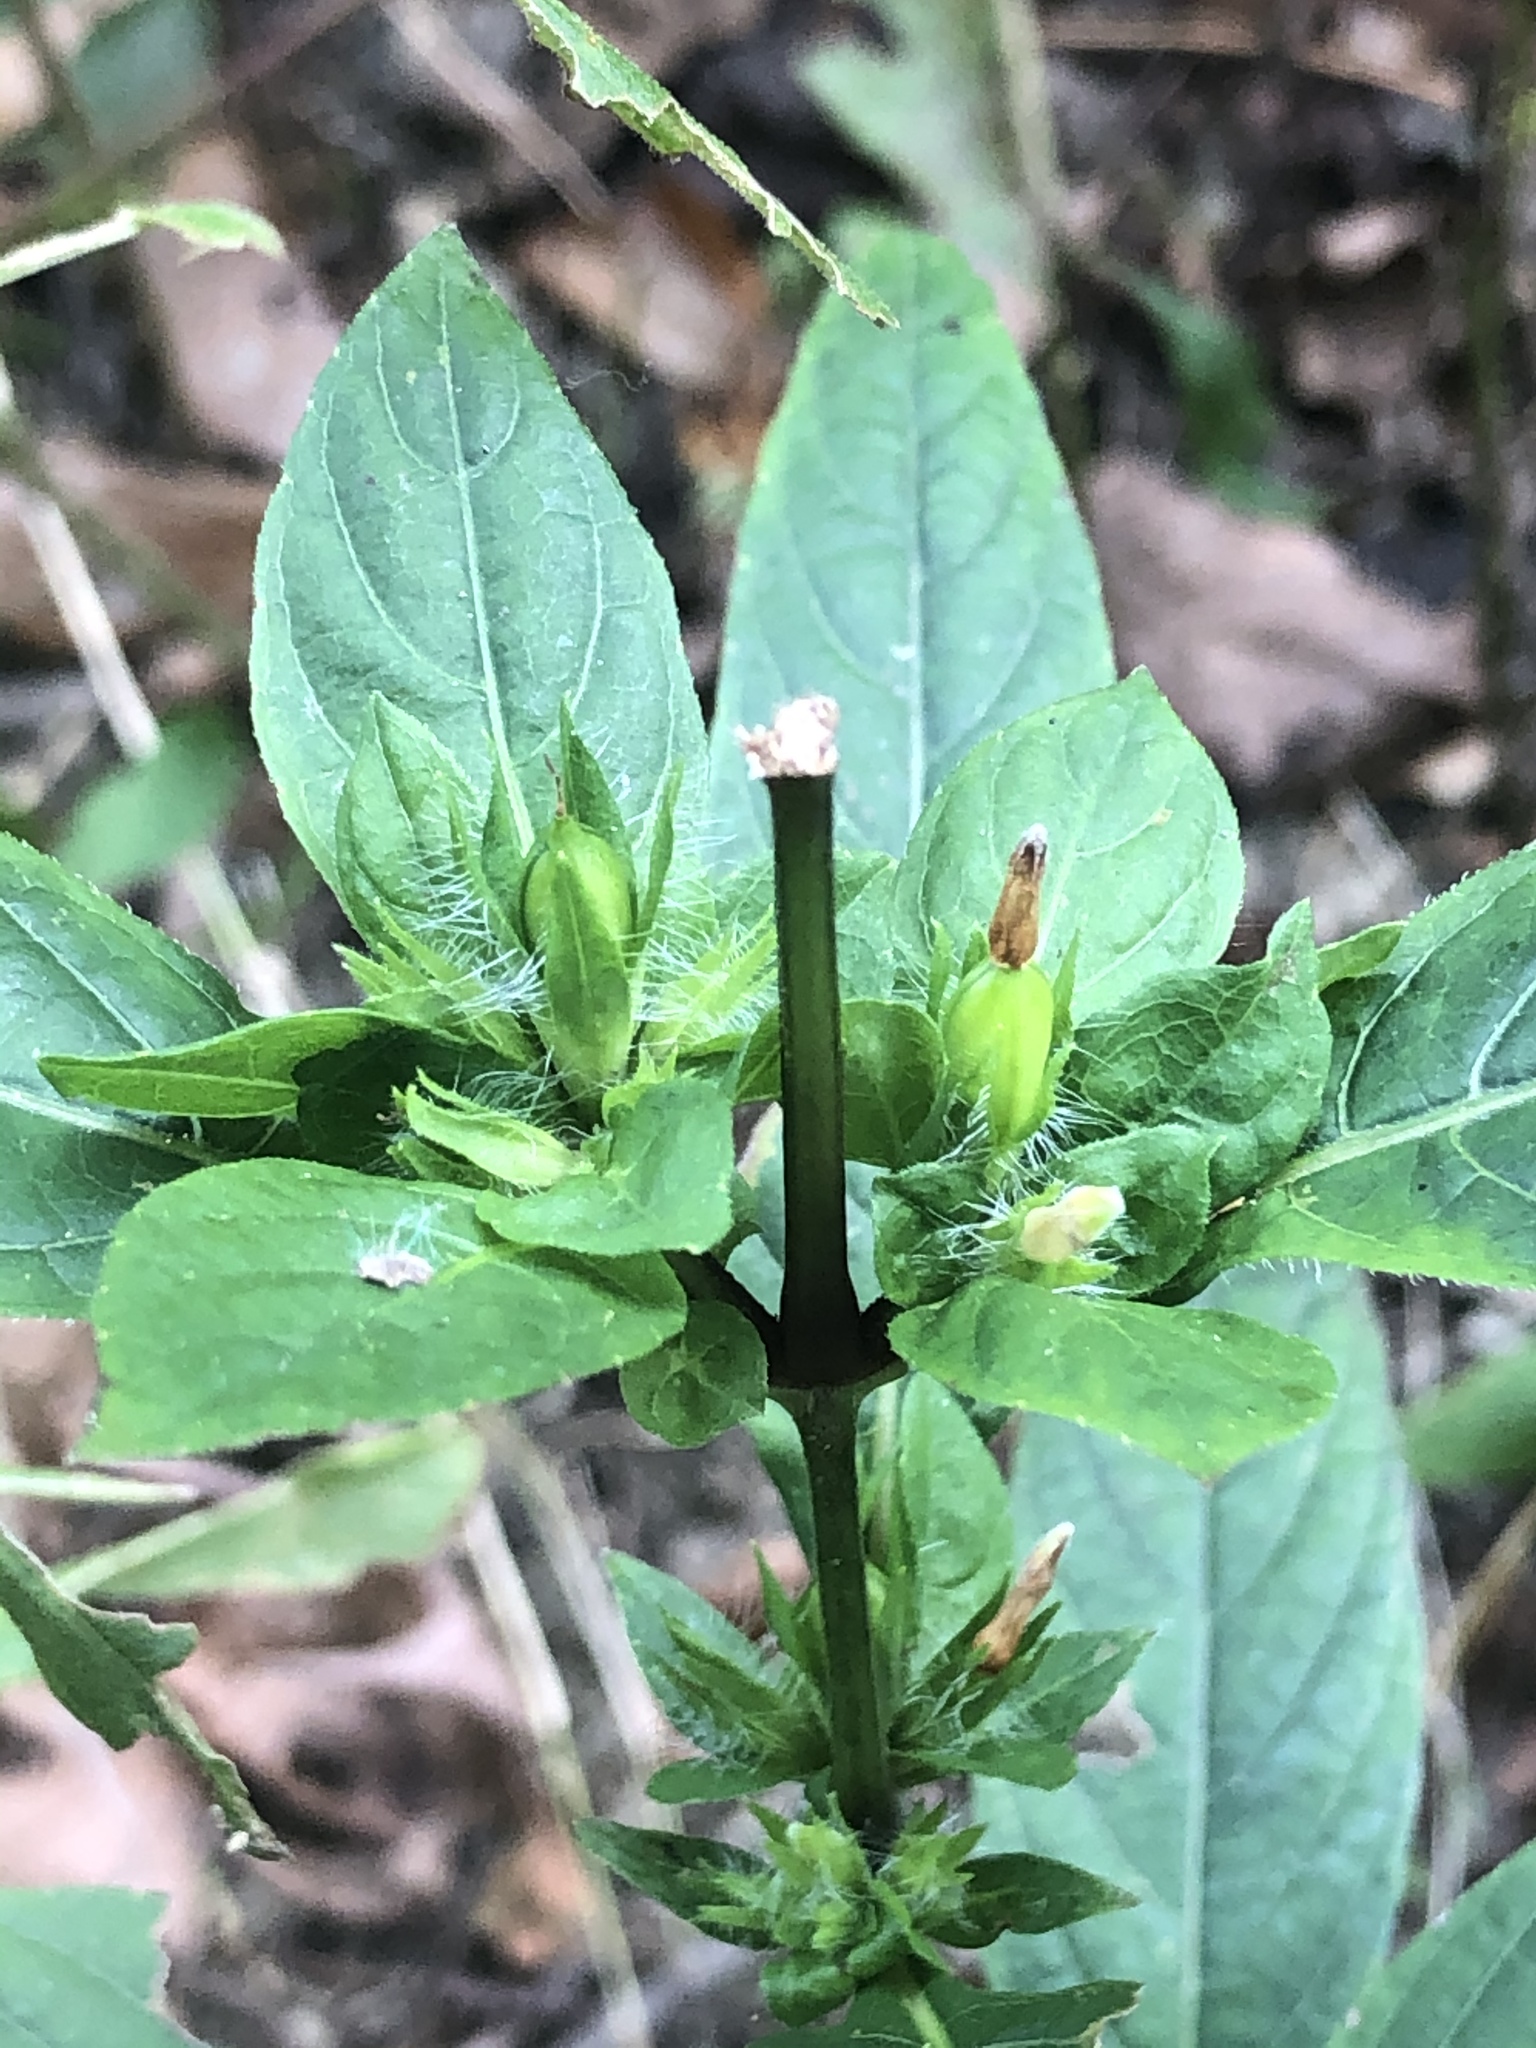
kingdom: Plantae
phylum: Tracheophyta
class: Magnoliopsida
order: Lamiales
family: Acanthaceae
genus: Ruellia
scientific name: Ruellia strepens
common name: Limestone wild petunia
